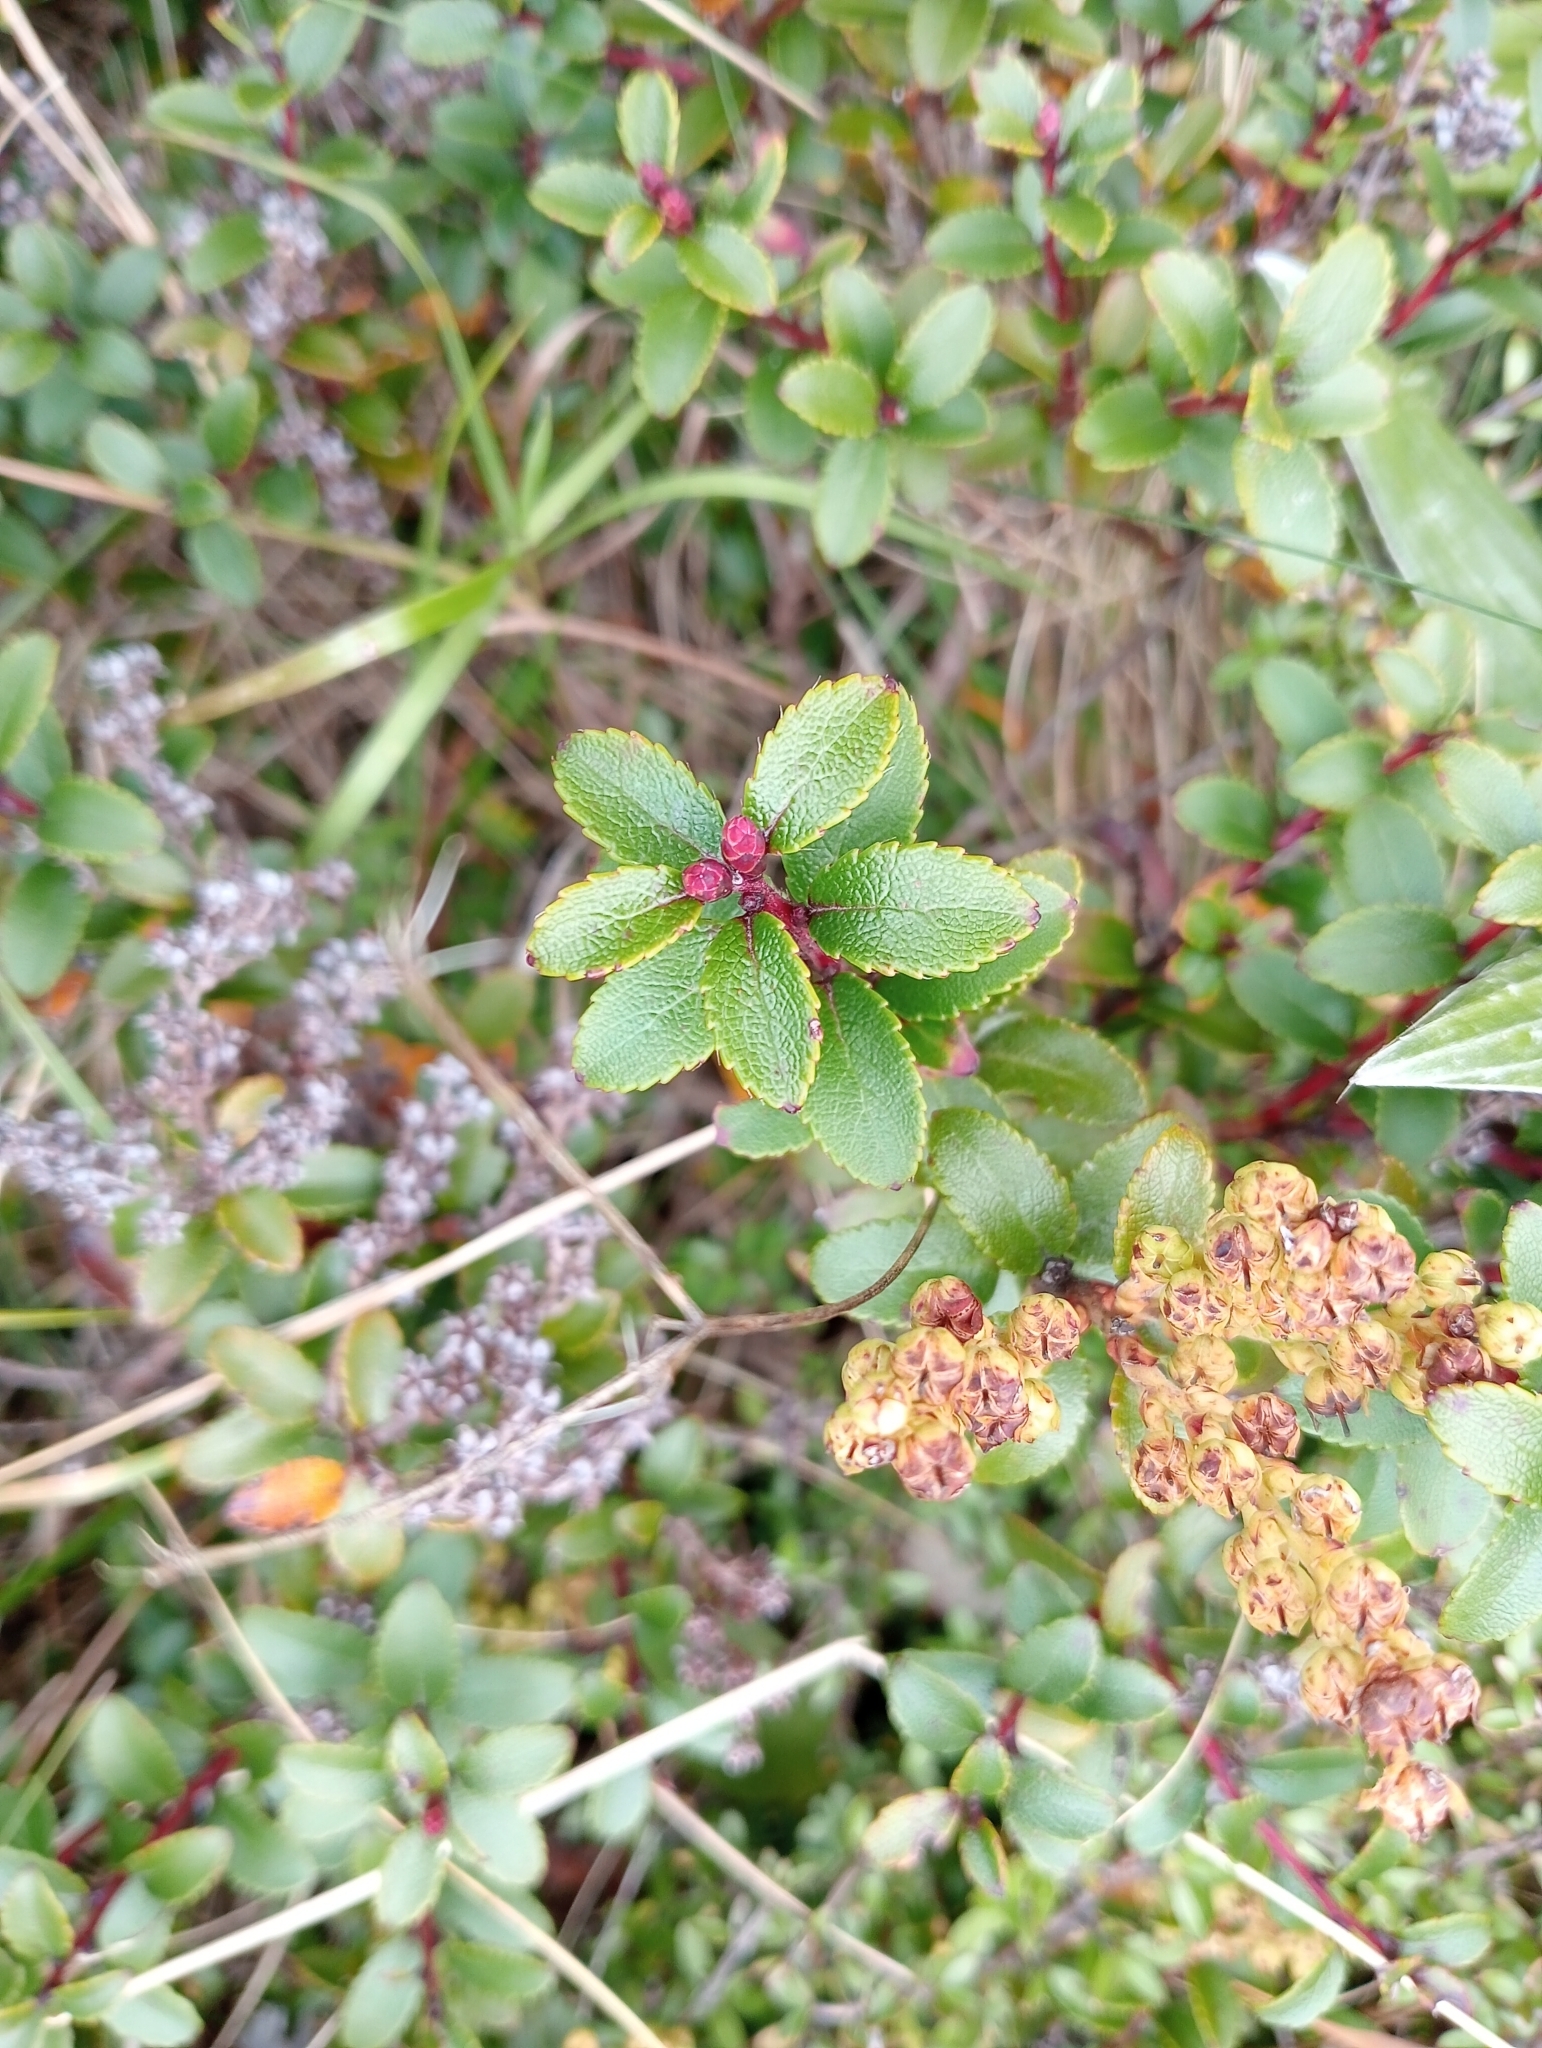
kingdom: Plantae
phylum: Tracheophyta
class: Magnoliopsida
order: Ericales
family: Ericaceae
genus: Gaultheria
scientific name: Gaultheria crassa
